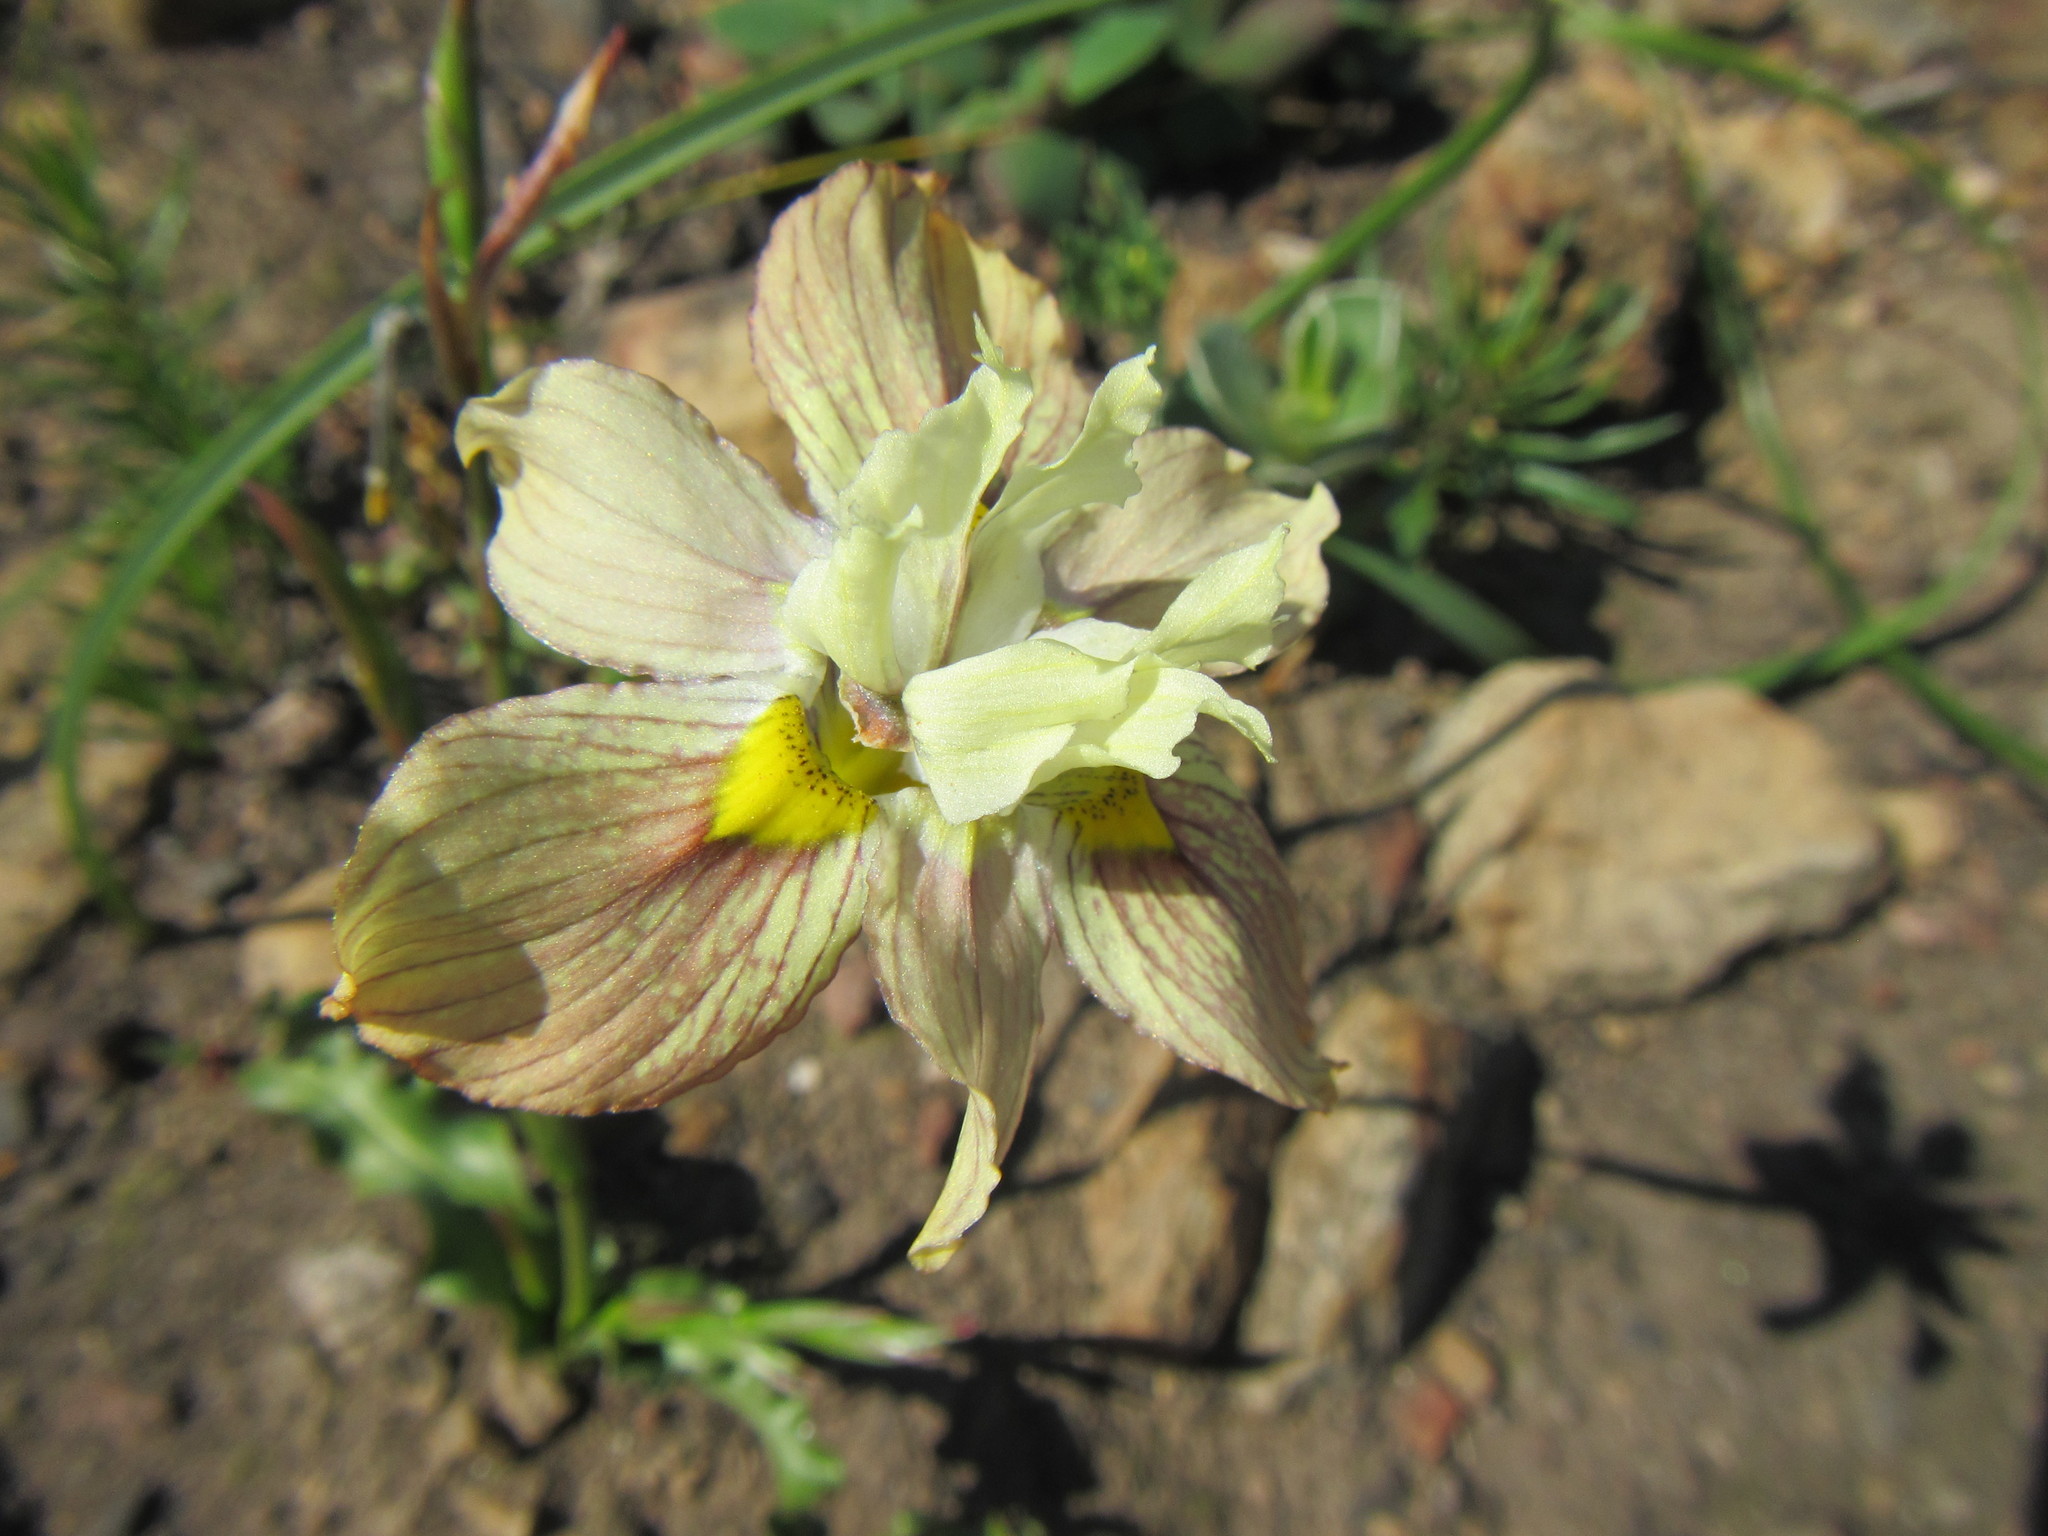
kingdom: Plantae
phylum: Tracheophyta
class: Liliopsida
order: Asparagales
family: Iridaceae
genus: Moraea
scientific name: Moraea gawleri
